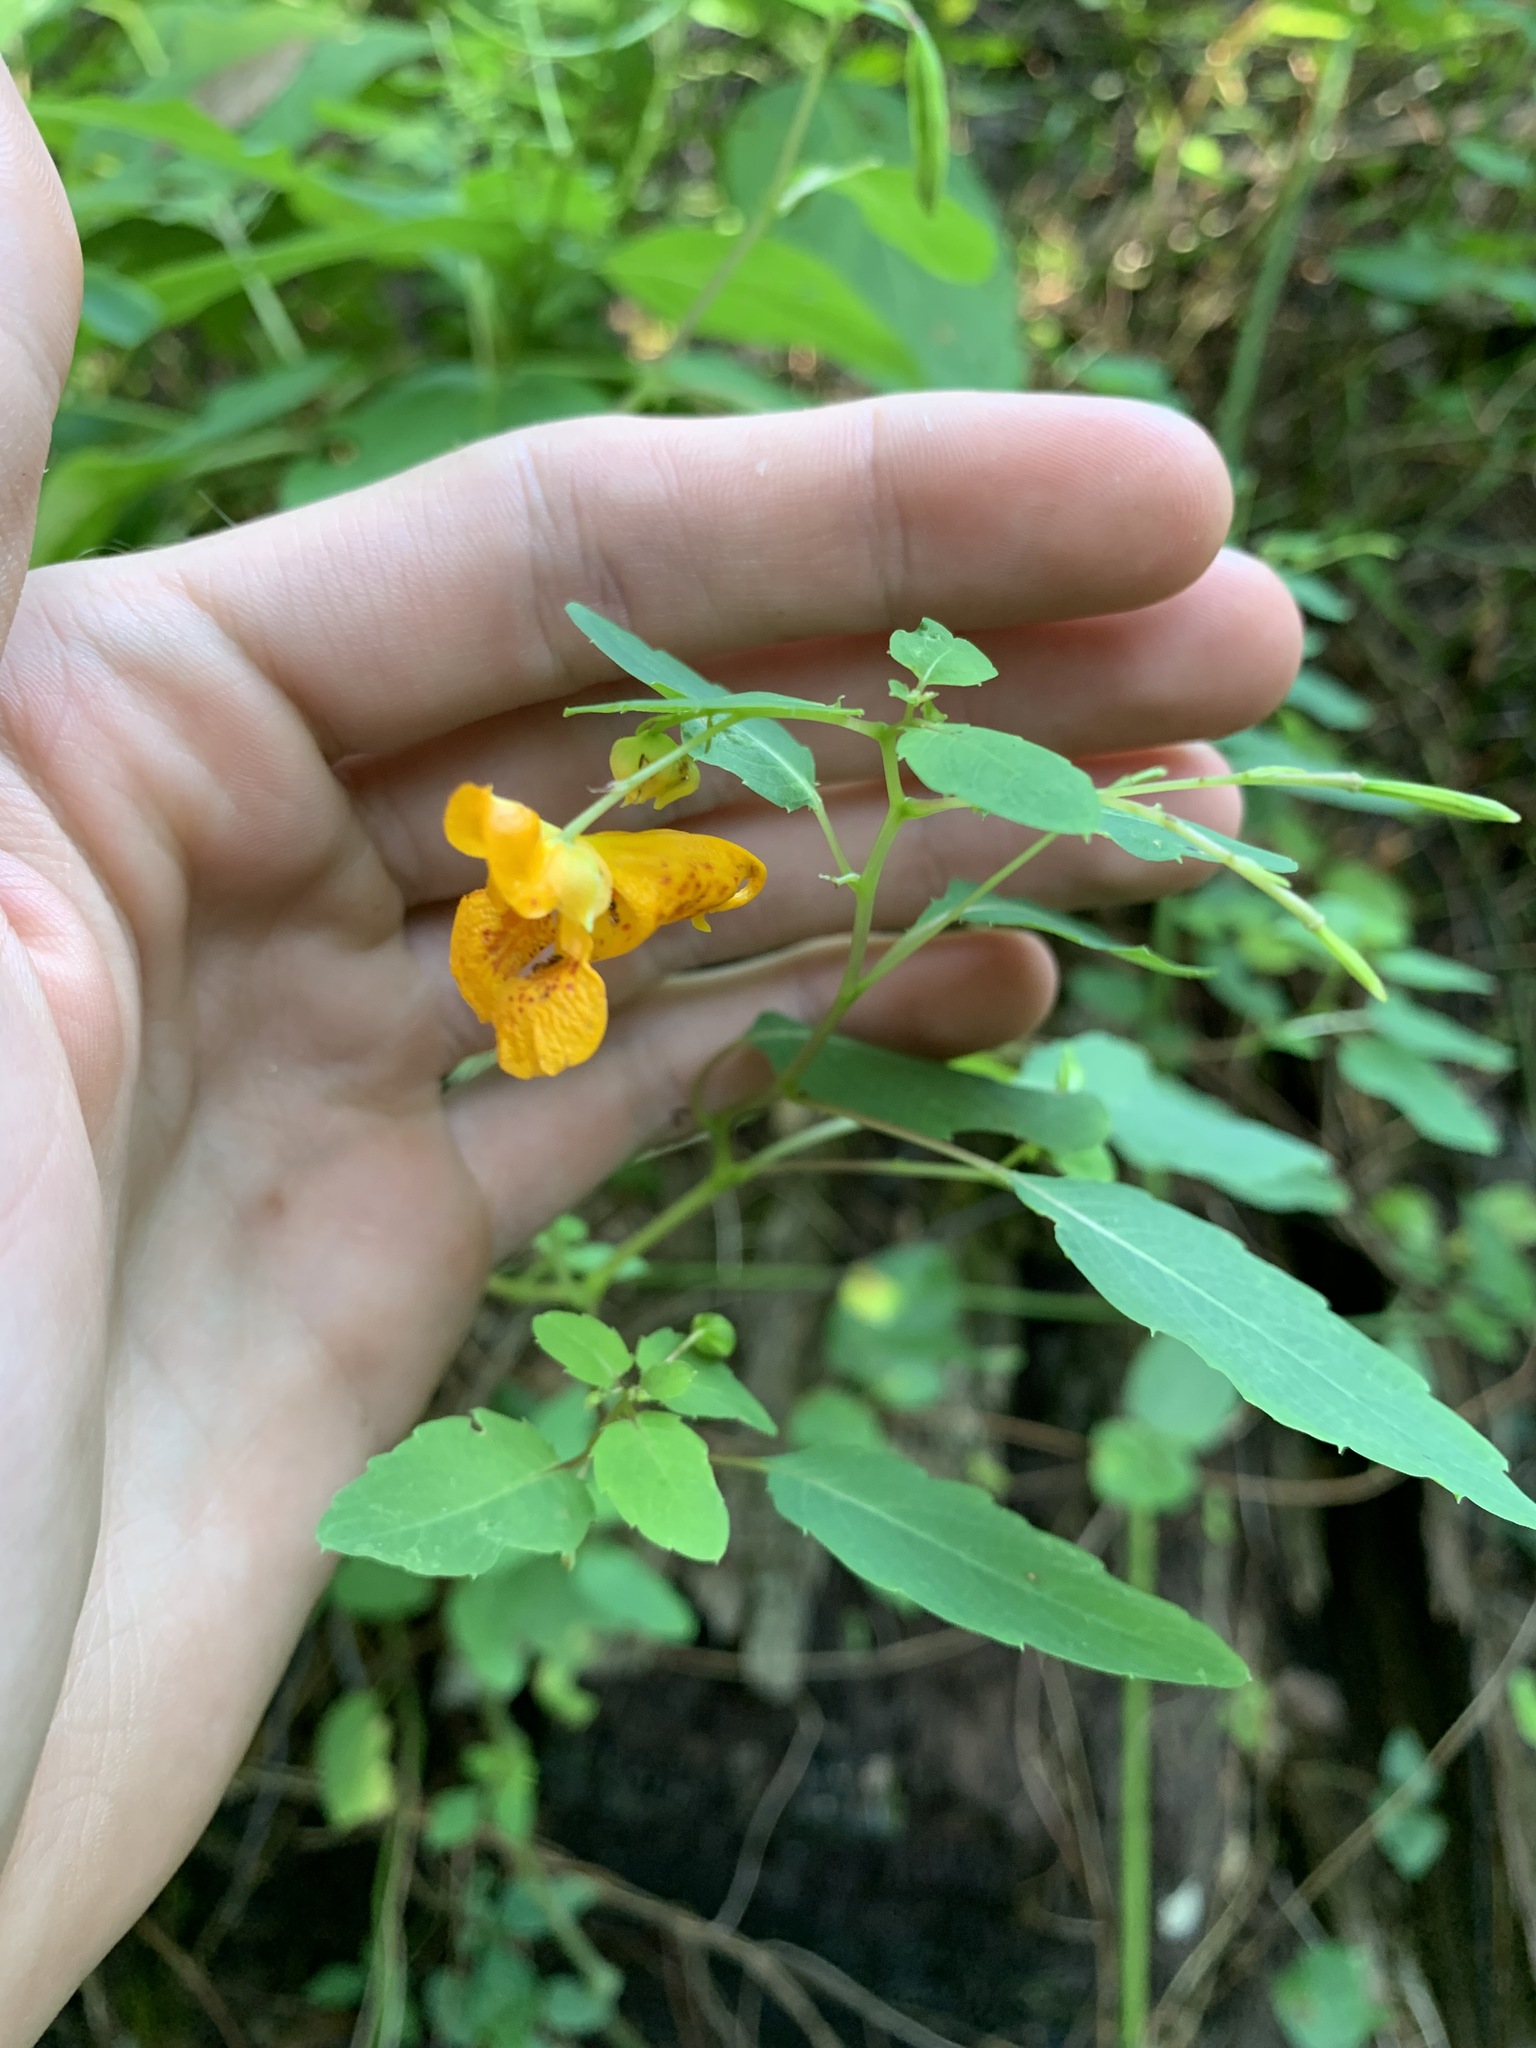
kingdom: Plantae
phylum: Tracheophyta
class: Magnoliopsida
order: Ericales
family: Balsaminaceae
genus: Impatiens
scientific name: Impatiens capensis
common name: Orange balsam
